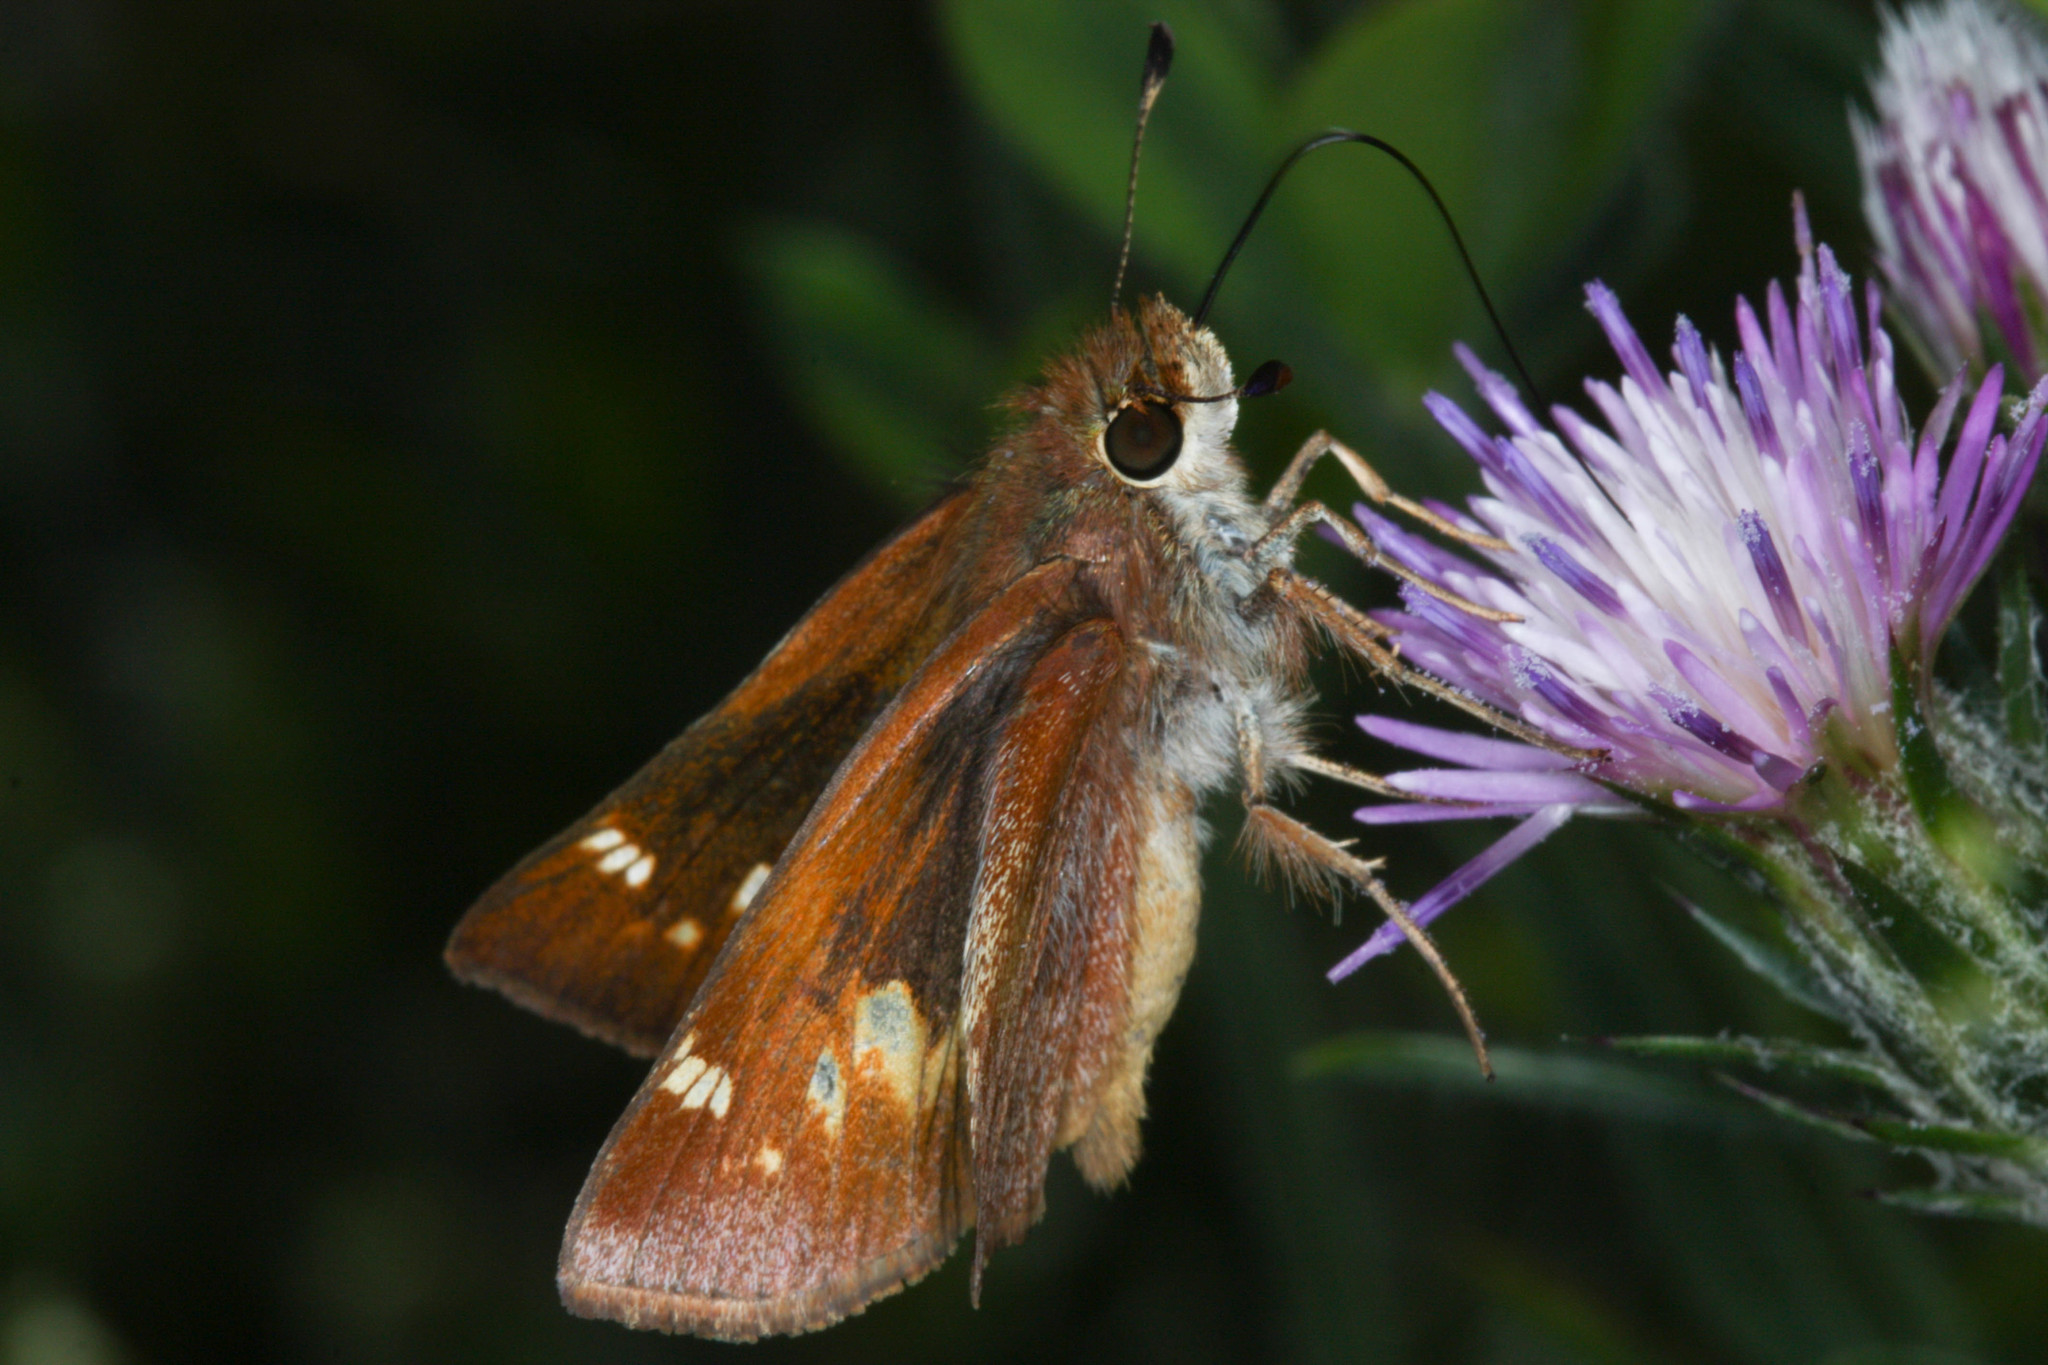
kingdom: Animalia
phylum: Arthropoda
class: Insecta
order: Lepidoptera
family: Hesperiidae
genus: Lon
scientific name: Lon melane
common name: Umber skipper
